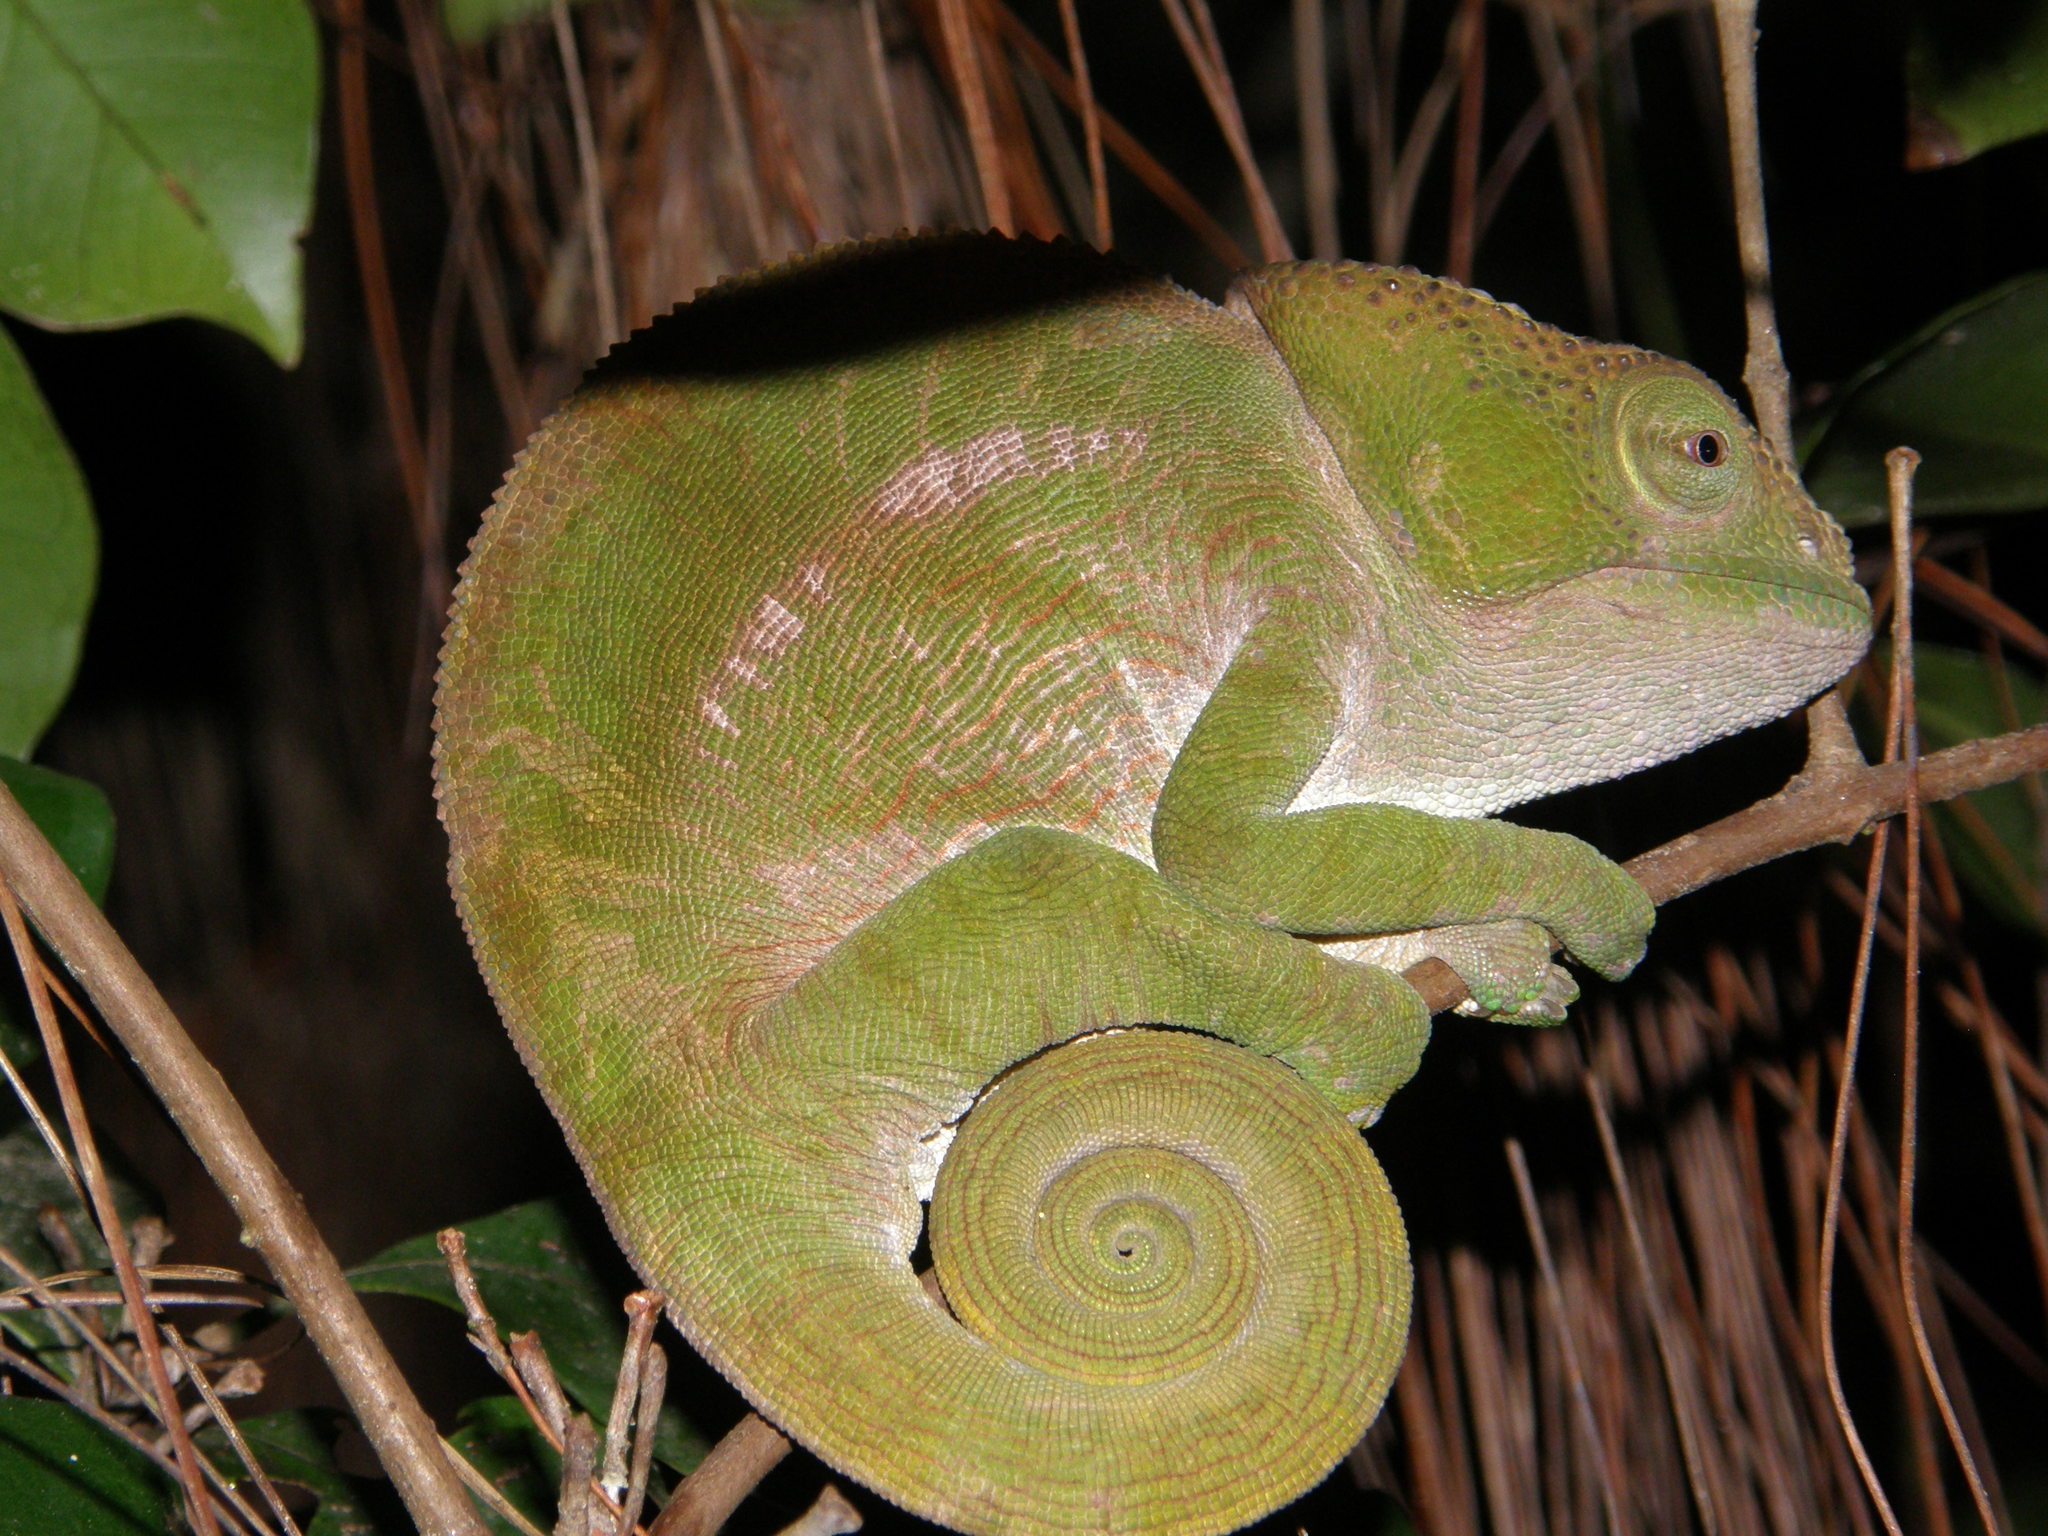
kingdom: Animalia
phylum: Chordata
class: Squamata
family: Chamaeleonidae
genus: Calumma
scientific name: Calumma parsonii
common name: Parson's chameleon
